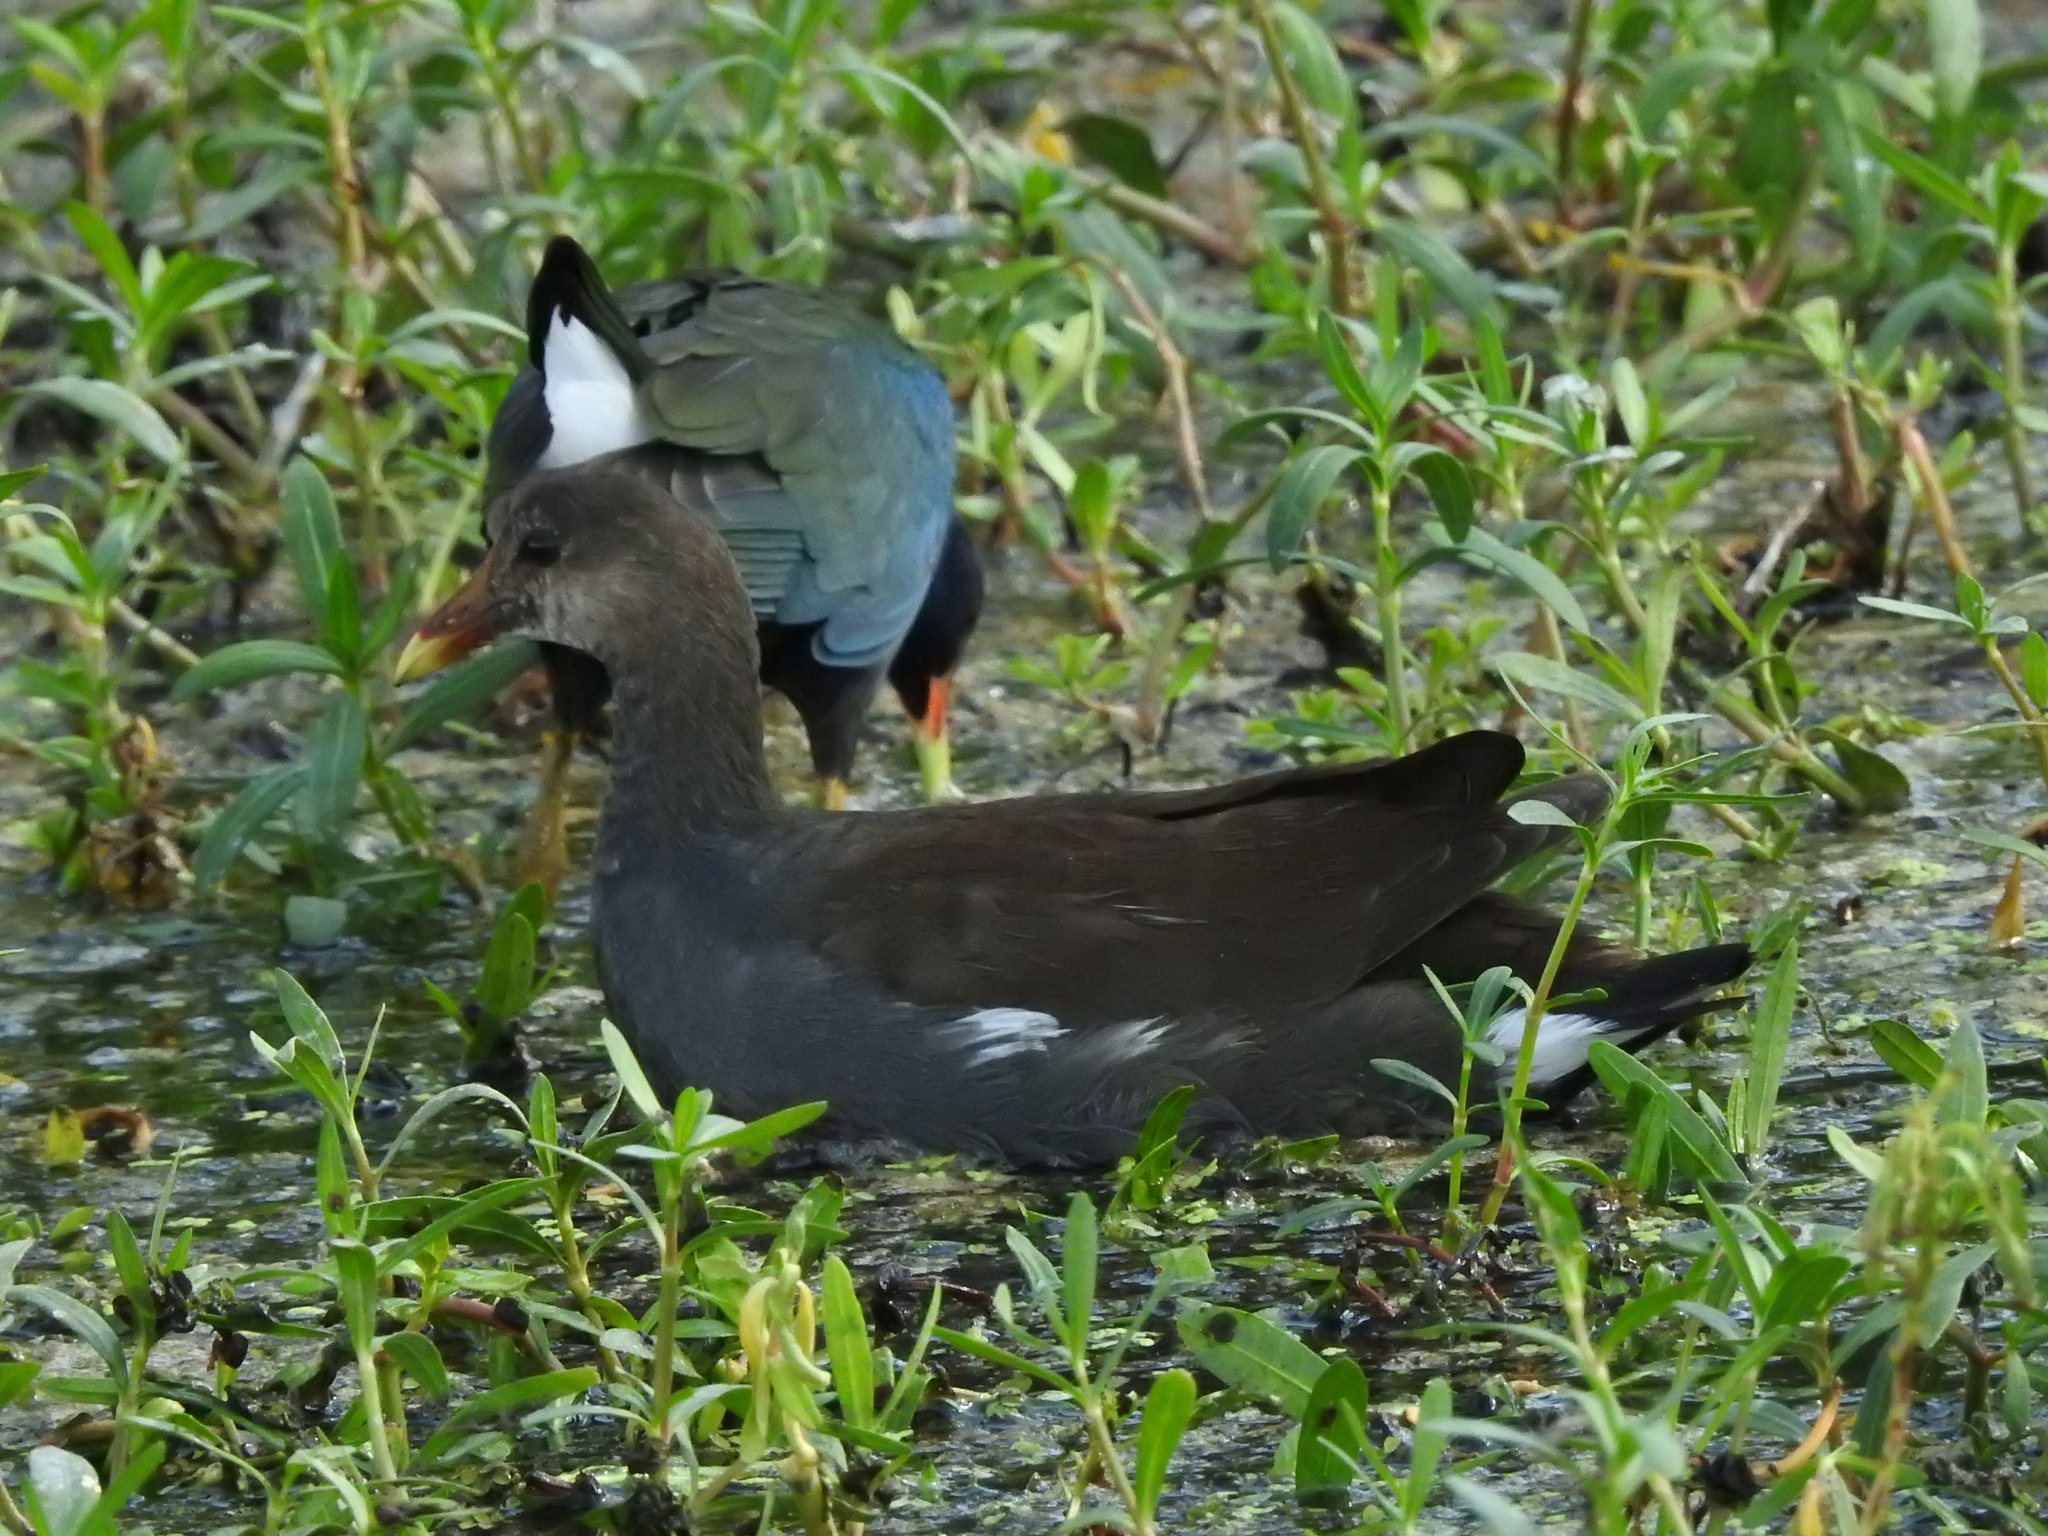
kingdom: Animalia
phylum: Chordata
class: Aves
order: Gruiformes
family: Rallidae
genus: Gallinula
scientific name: Gallinula chloropus
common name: Common moorhen
